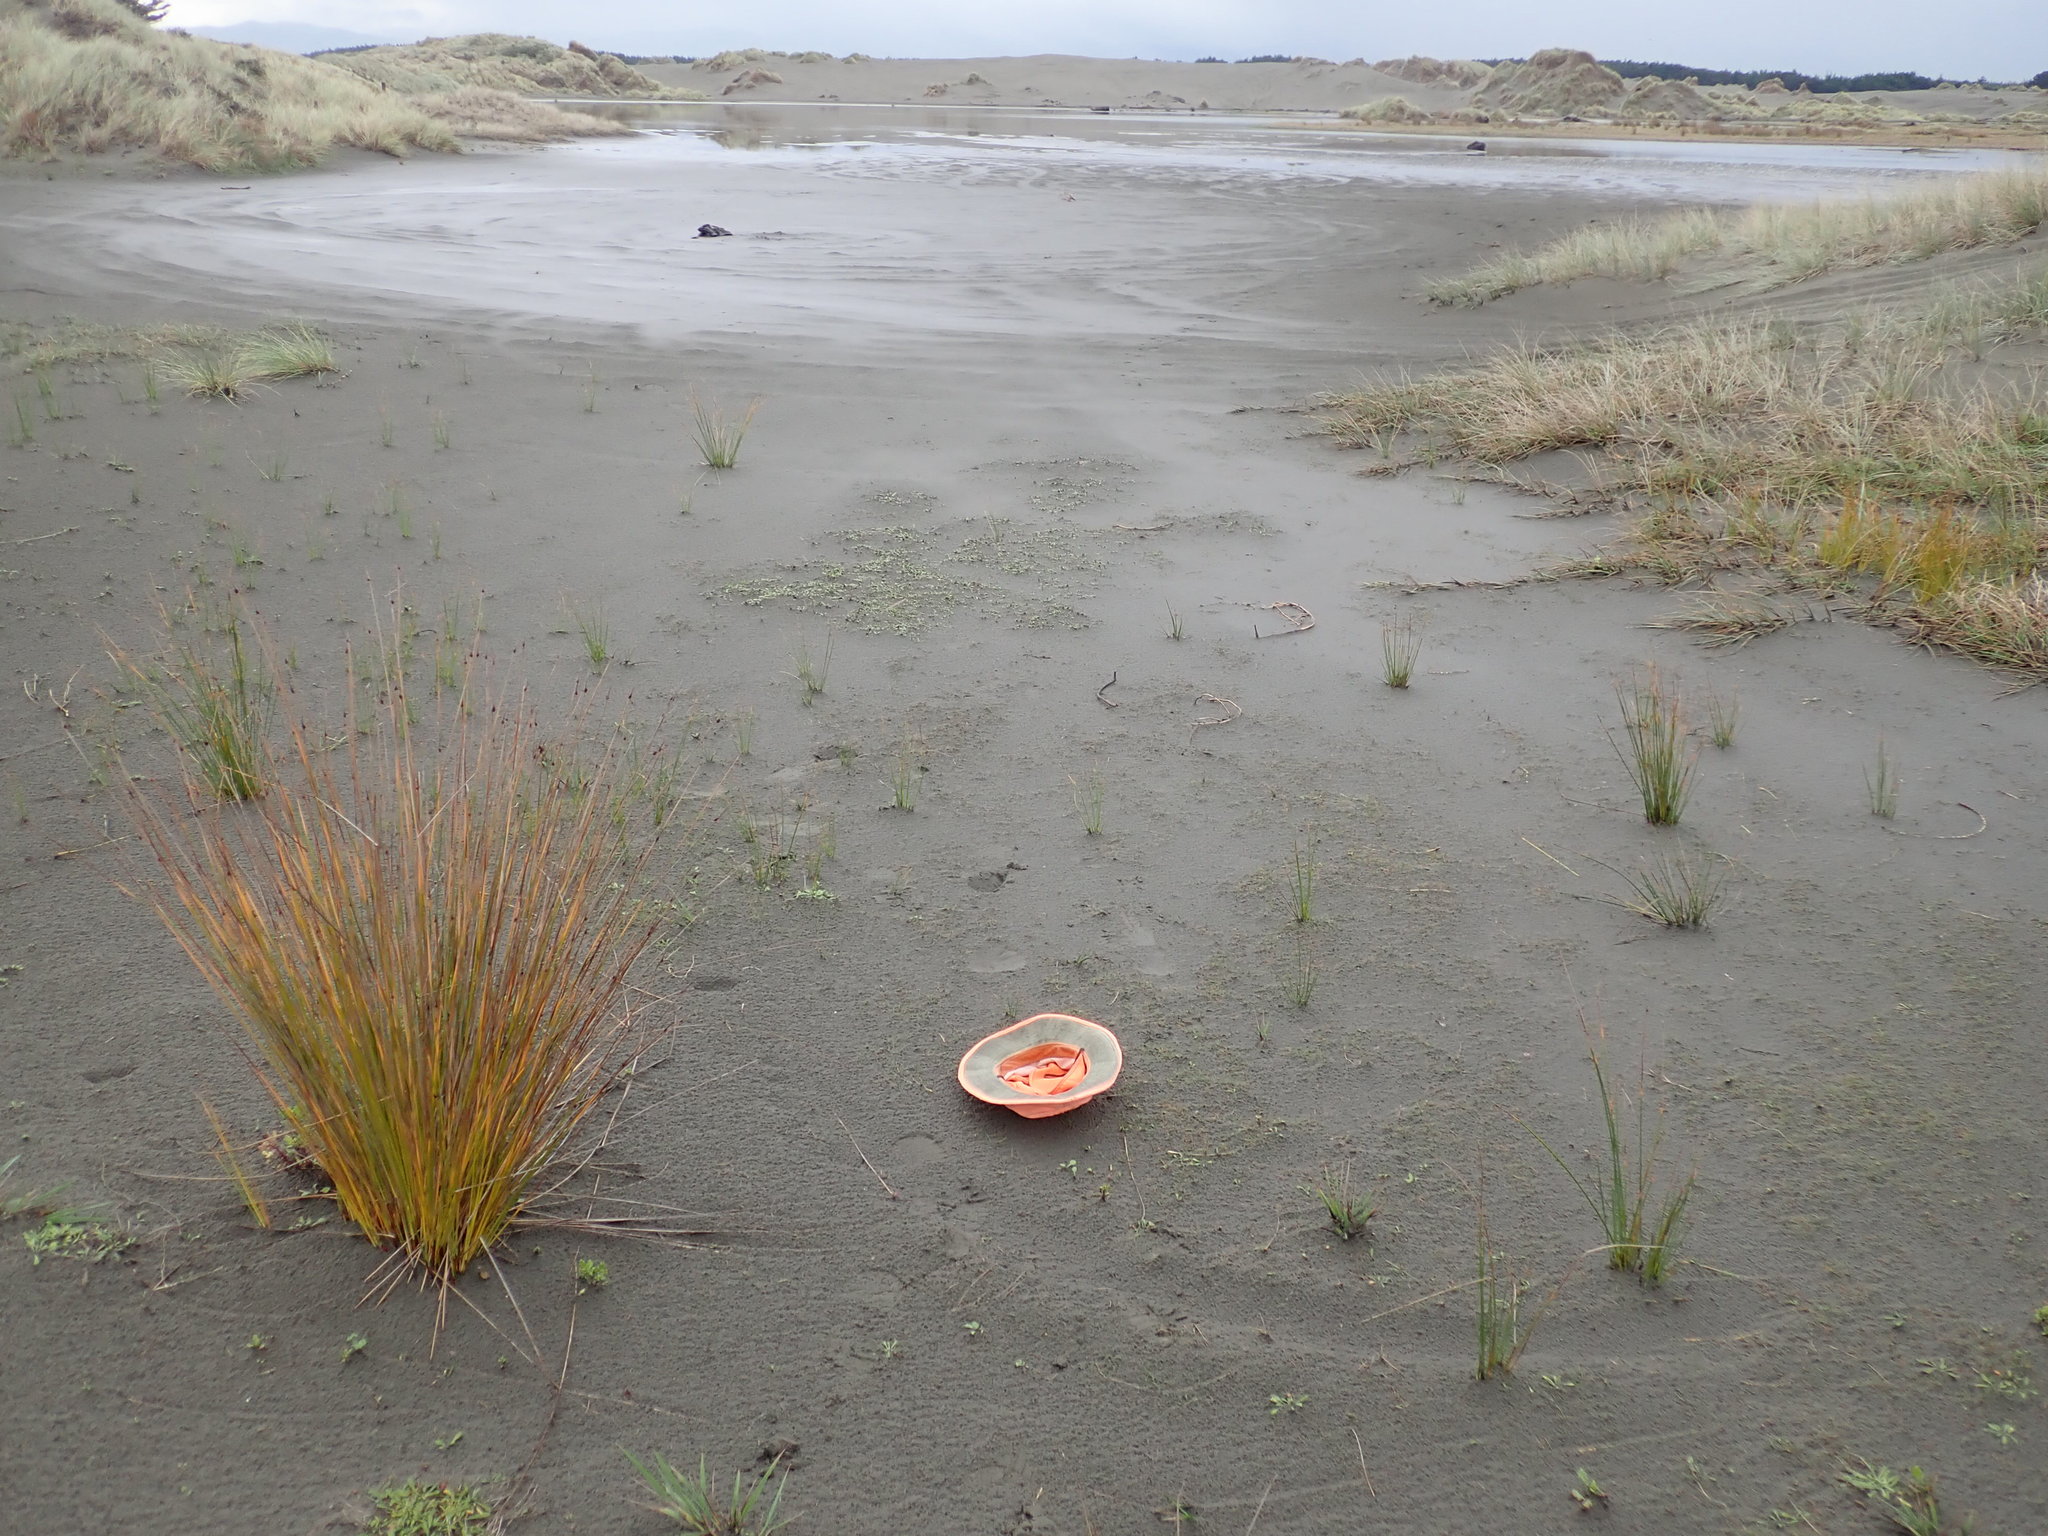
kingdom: Plantae
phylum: Tracheophyta
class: Liliopsida
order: Alismatales
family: Juncaginaceae
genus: Triglochin
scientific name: Triglochin striata
